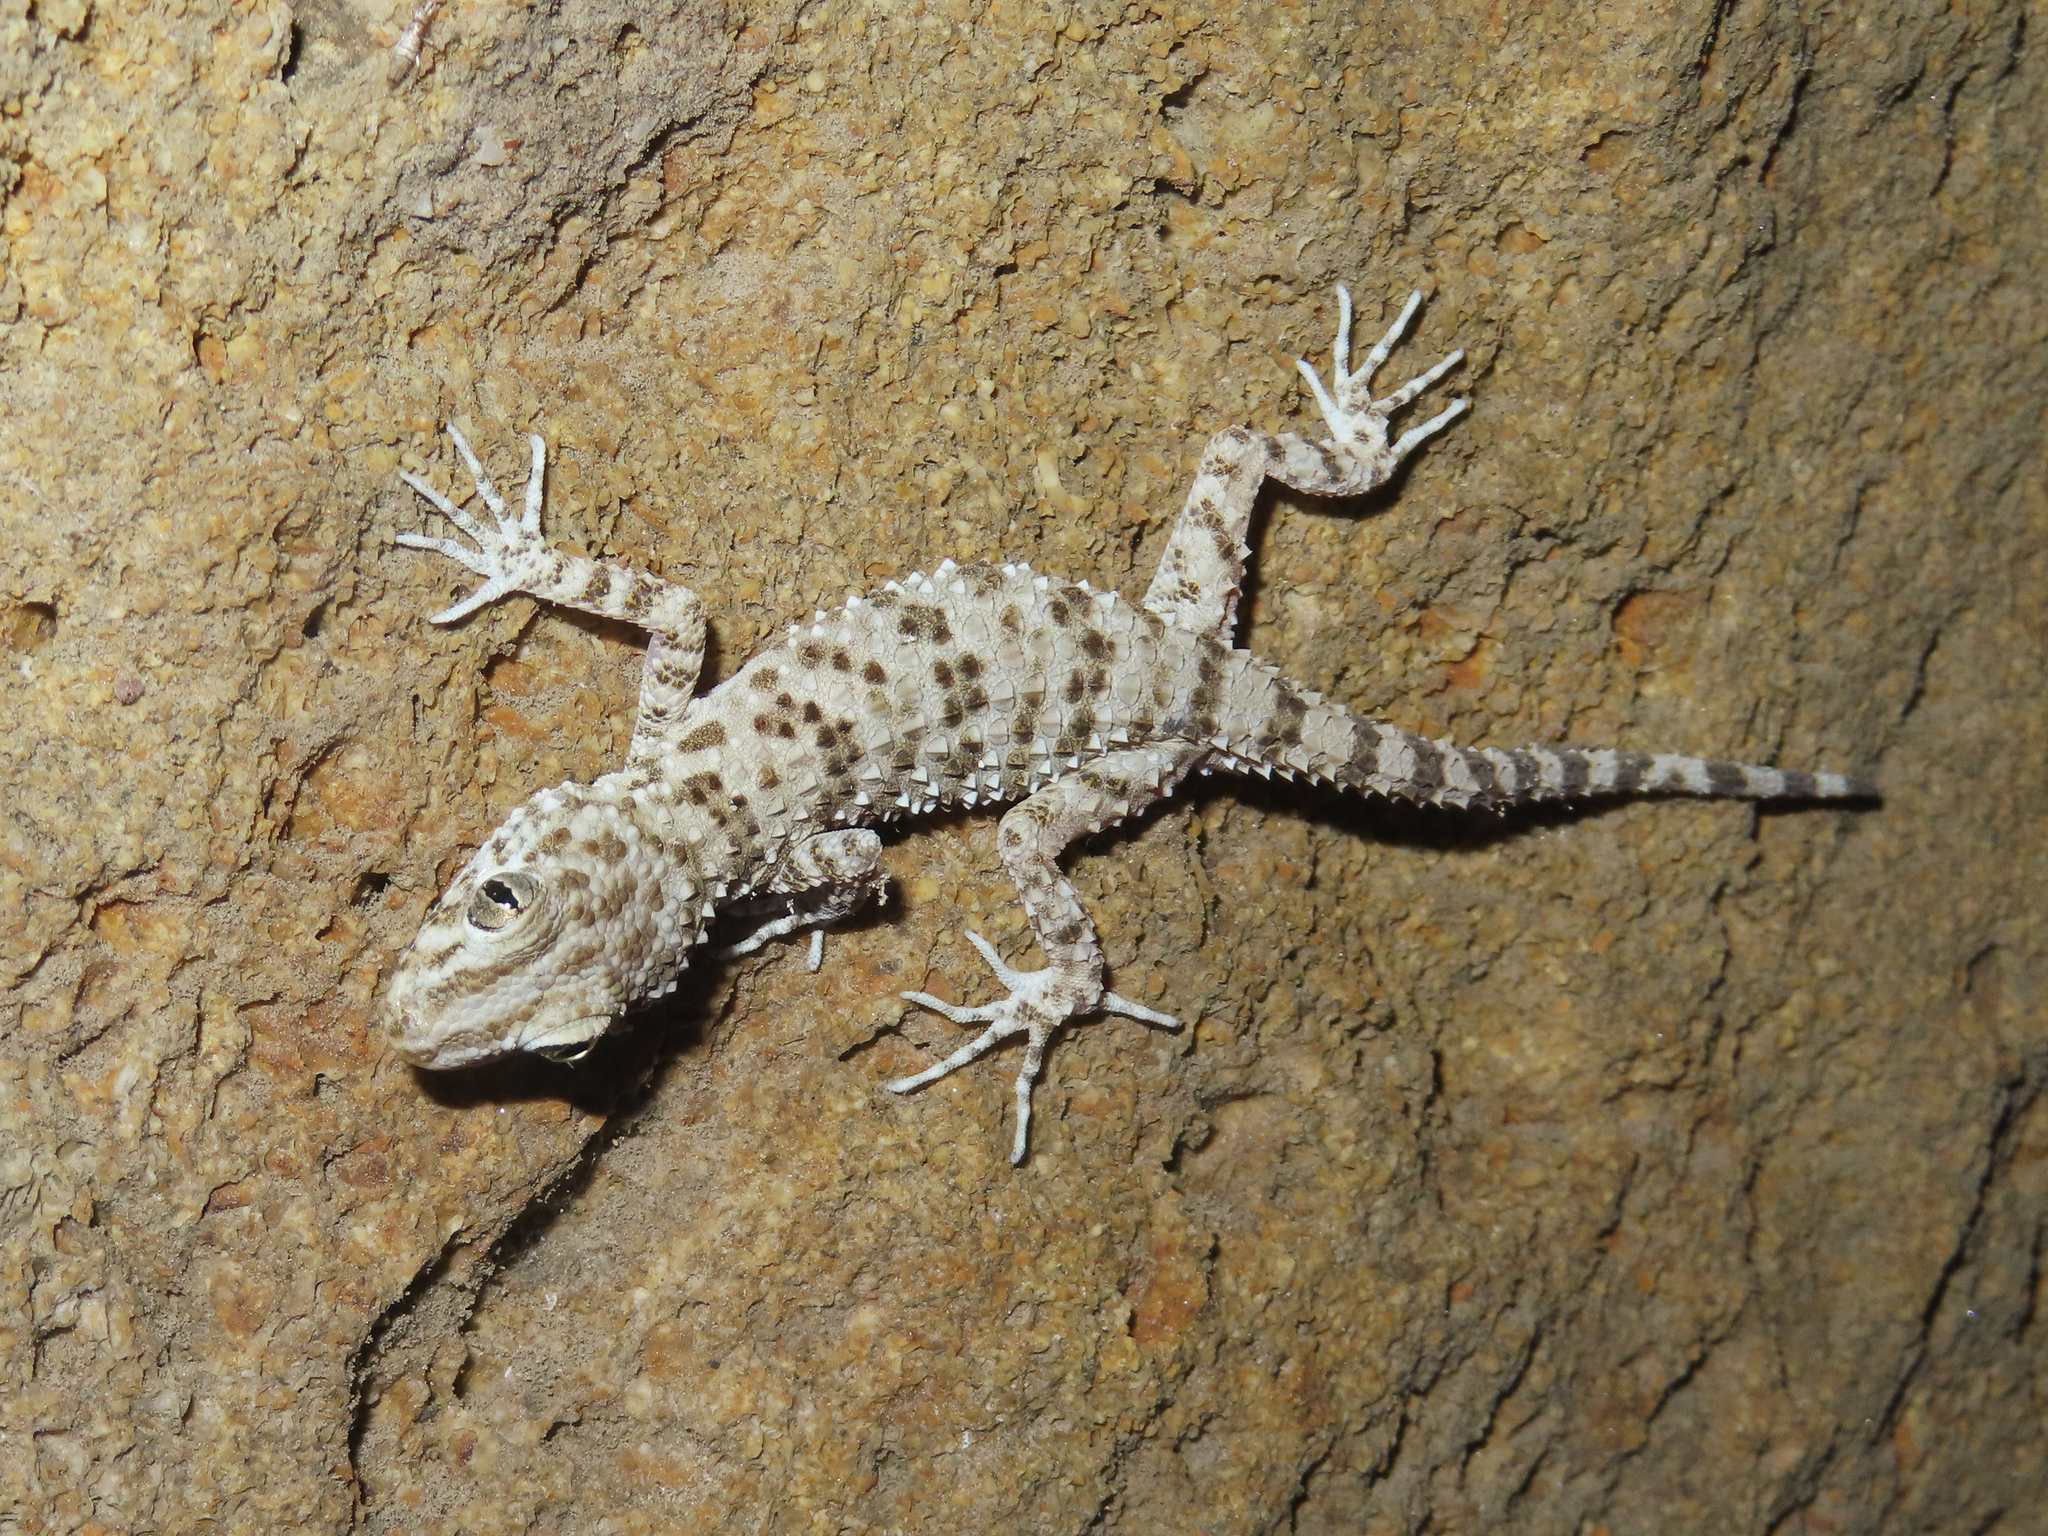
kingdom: Animalia
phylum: Chordata
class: Squamata
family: Gekkonidae
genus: Tenuidactylus
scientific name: Tenuidactylus caspius
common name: Caspian bent-toed gecko
